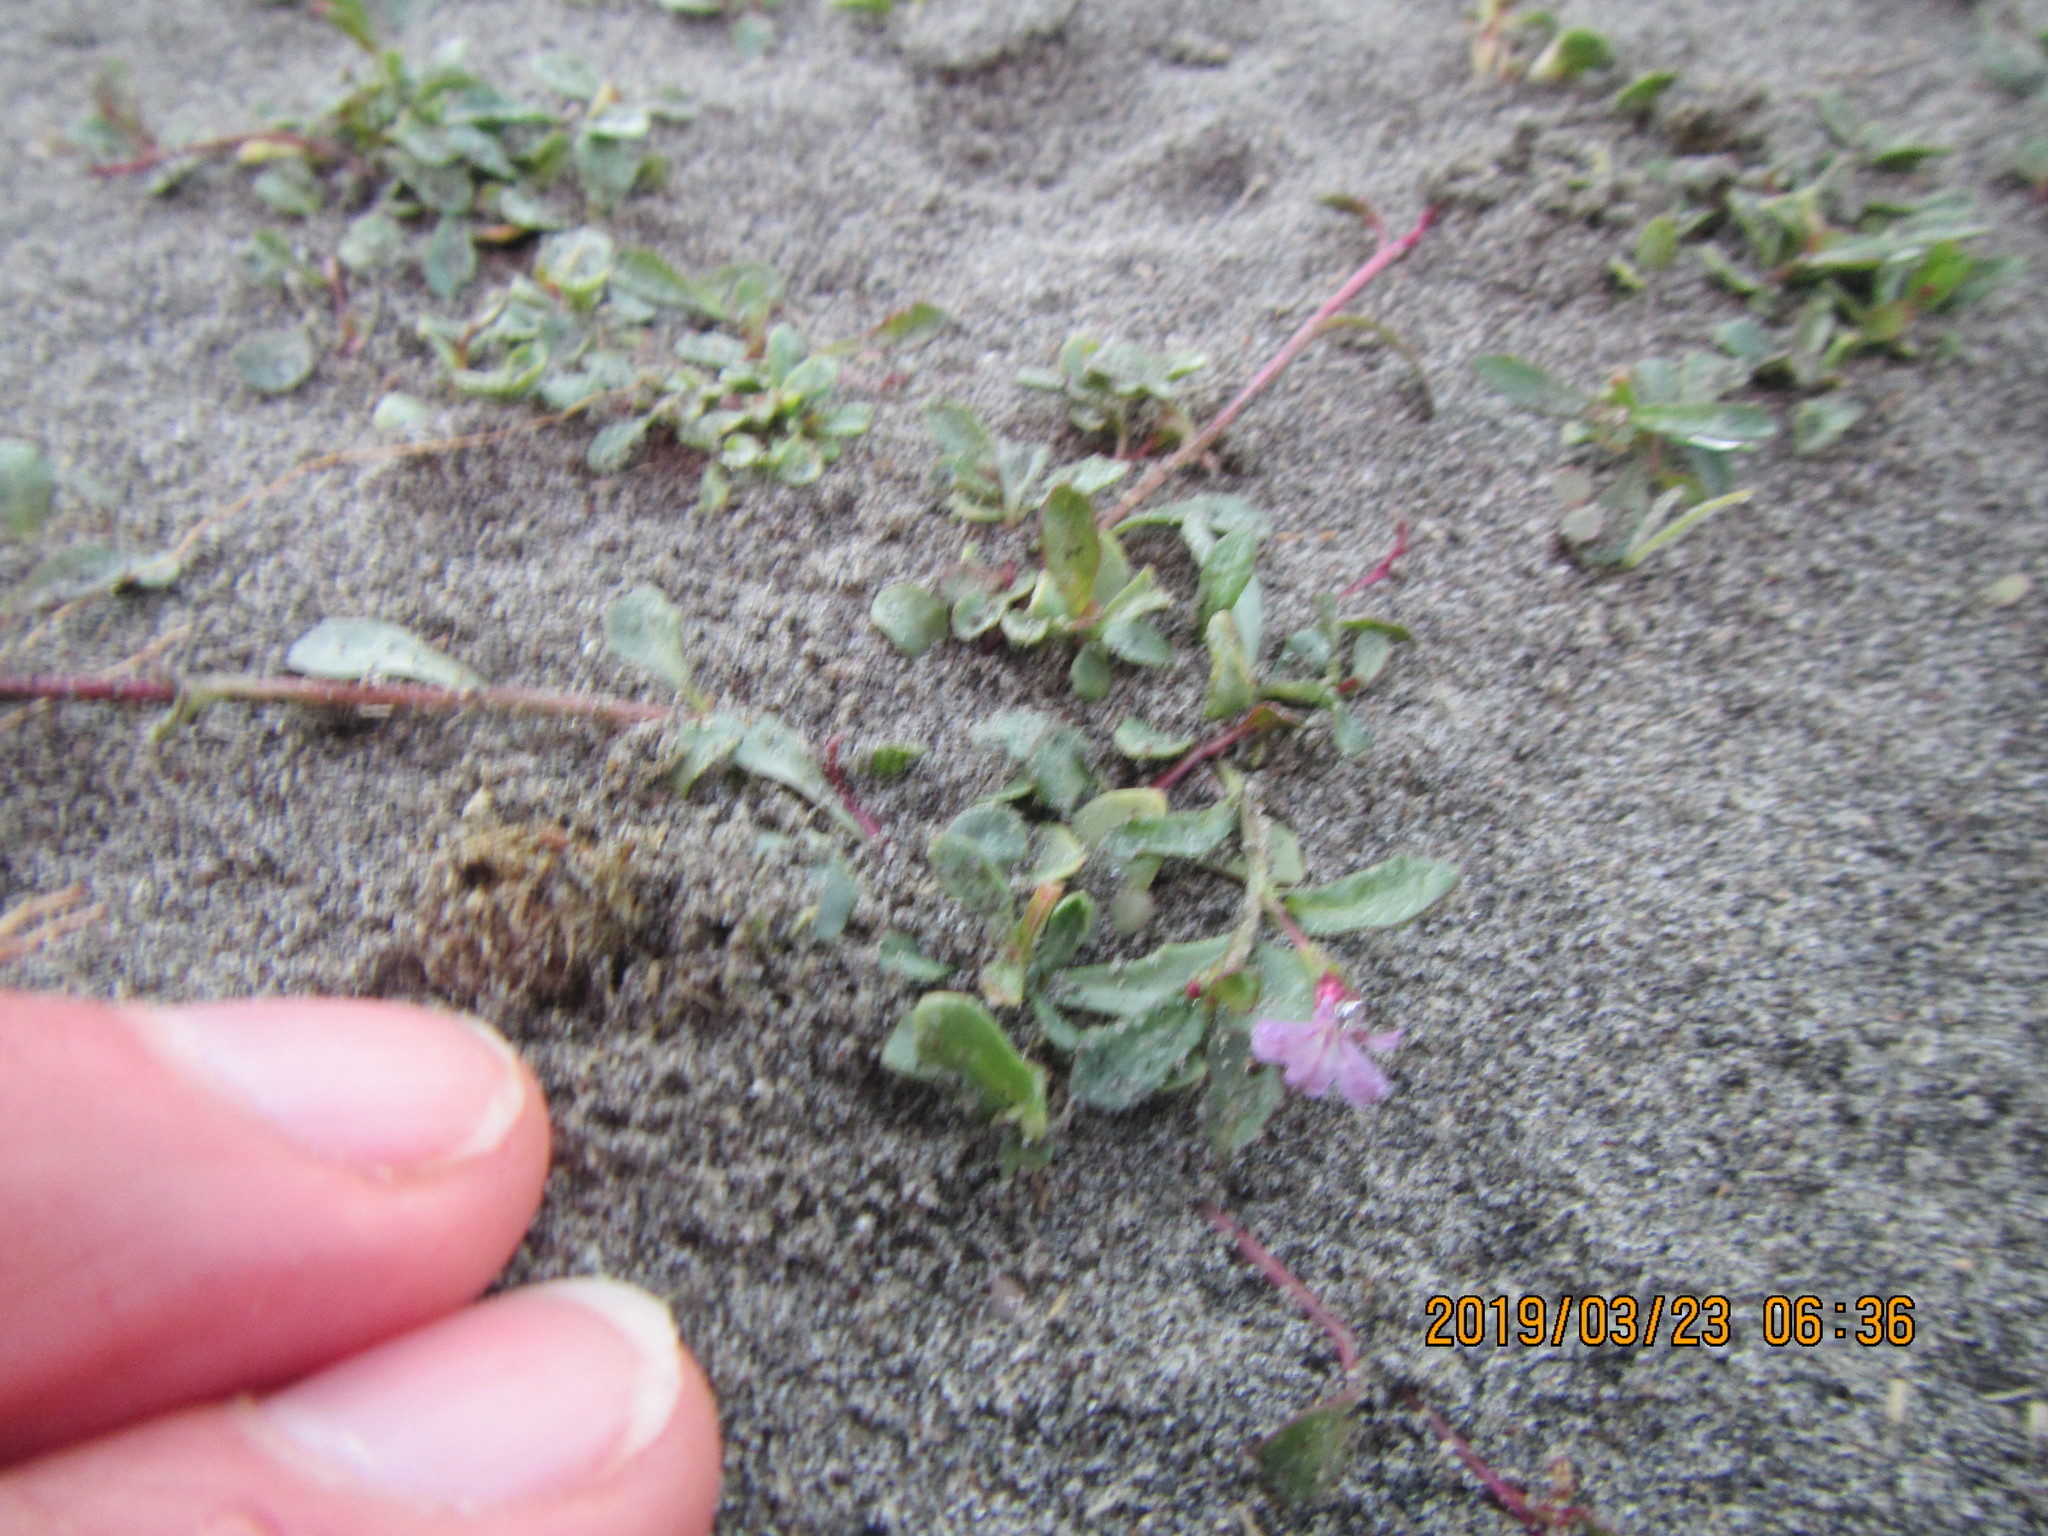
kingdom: Plantae
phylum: Tracheophyta
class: Magnoliopsida
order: Asterales
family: Campanulaceae
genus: Lobelia
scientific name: Lobelia anceps
